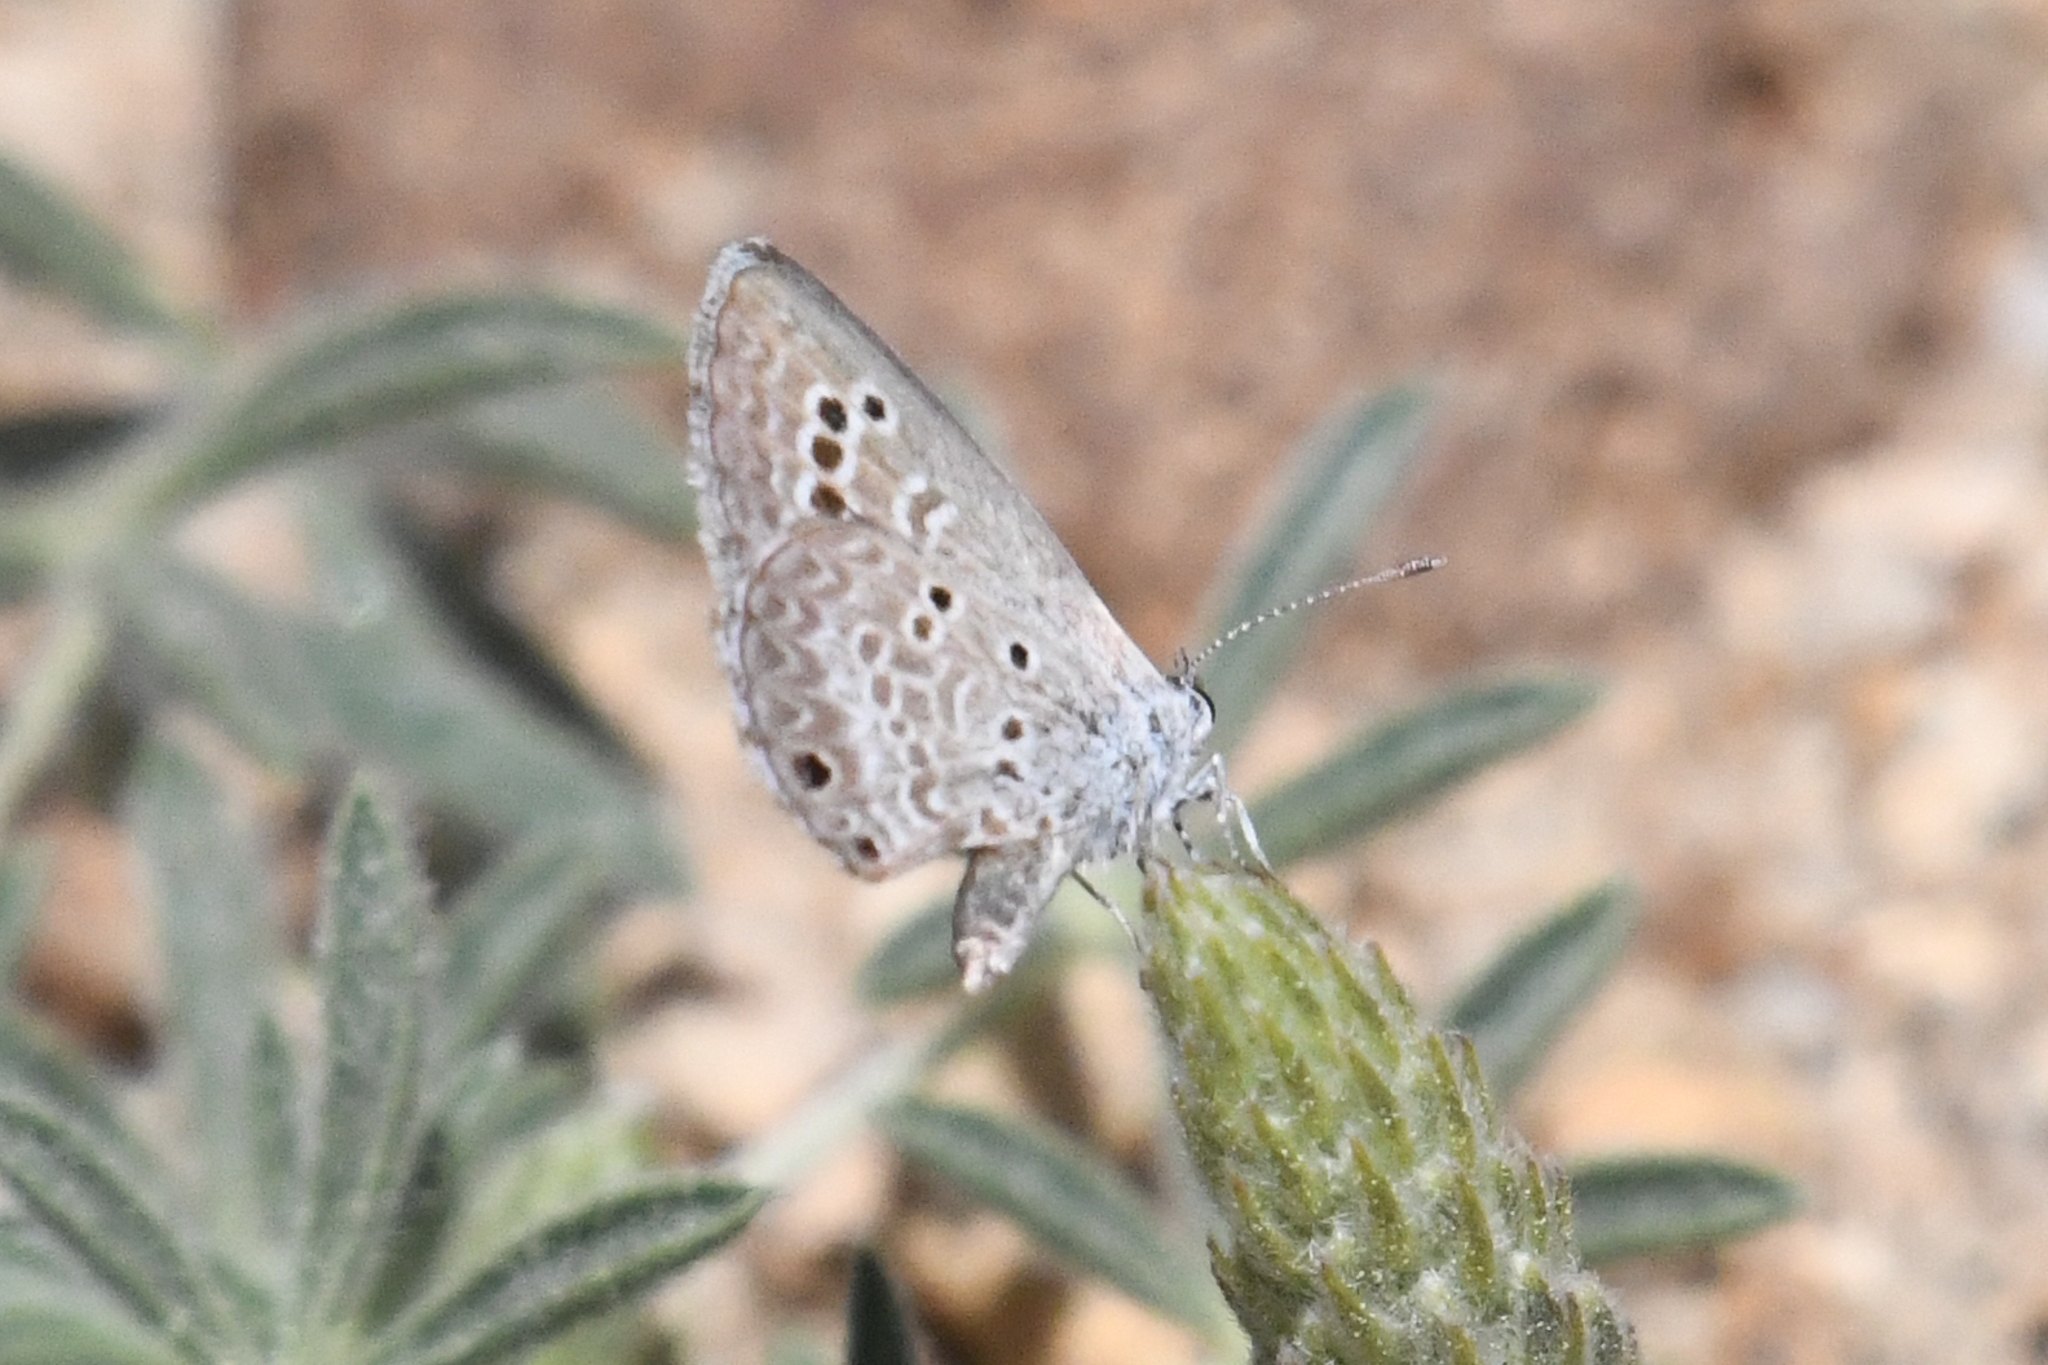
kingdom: Animalia
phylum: Arthropoda
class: Insecta
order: Lepidoptera
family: Lycaenidae
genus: Echinargus
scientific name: Echinargus isola
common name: Reakirt's blue
